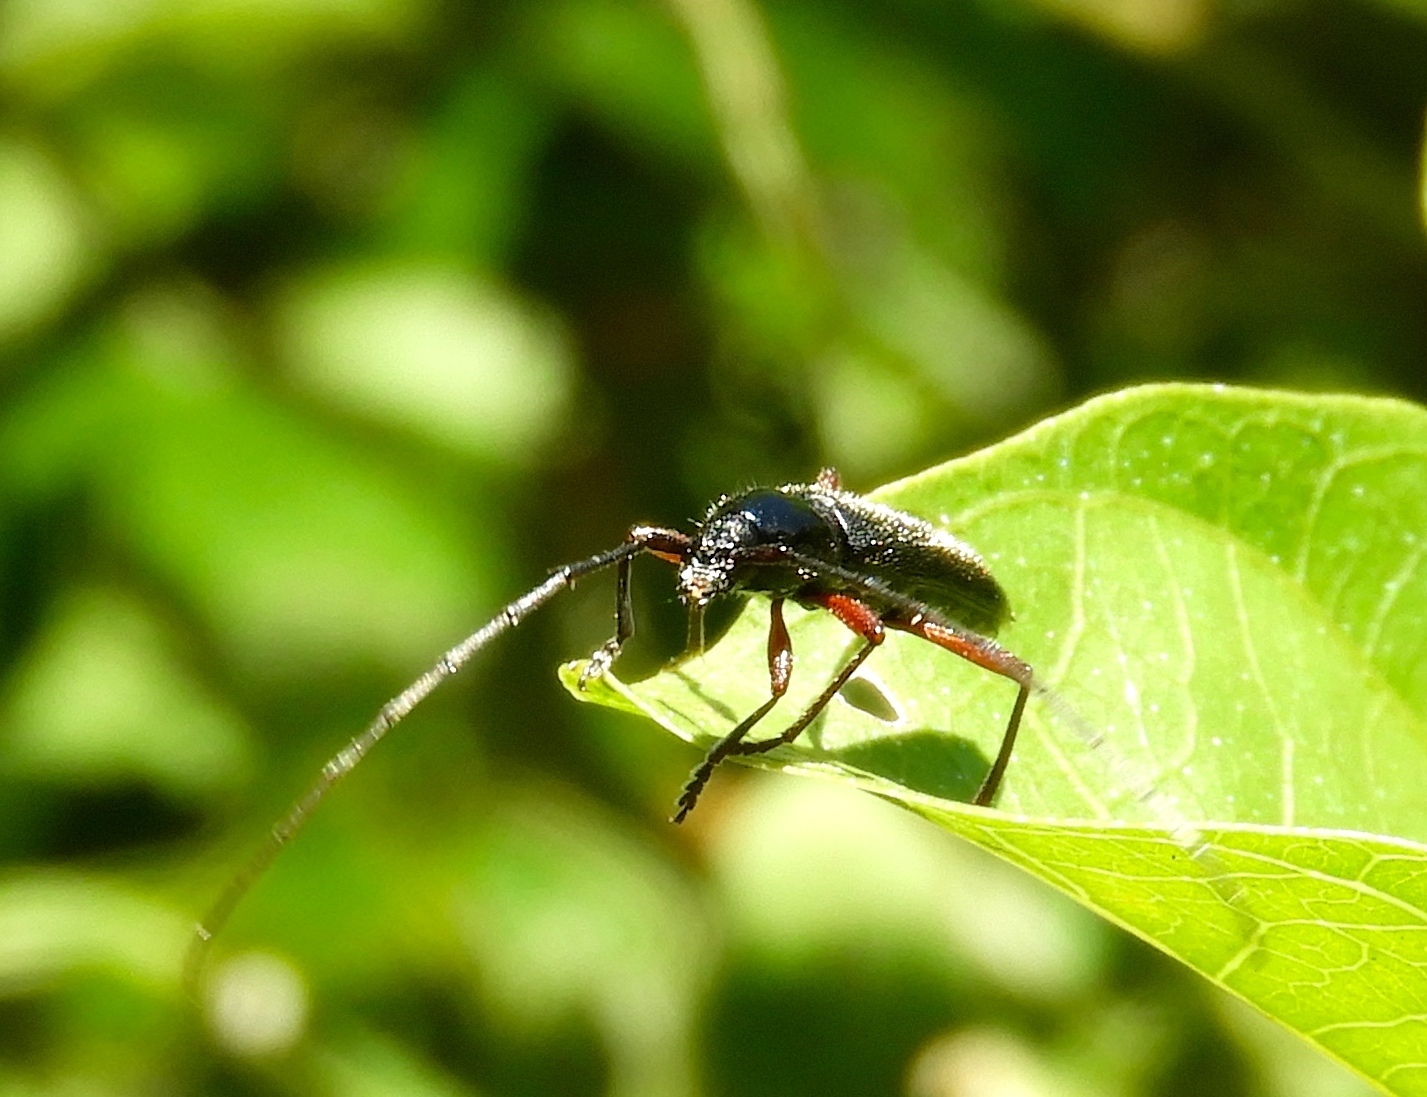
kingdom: Animalia
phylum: Arthropoda
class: Insecta
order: Coleoptera
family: Cerambycidae
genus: Stenosphenus
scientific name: Stenosphenus
